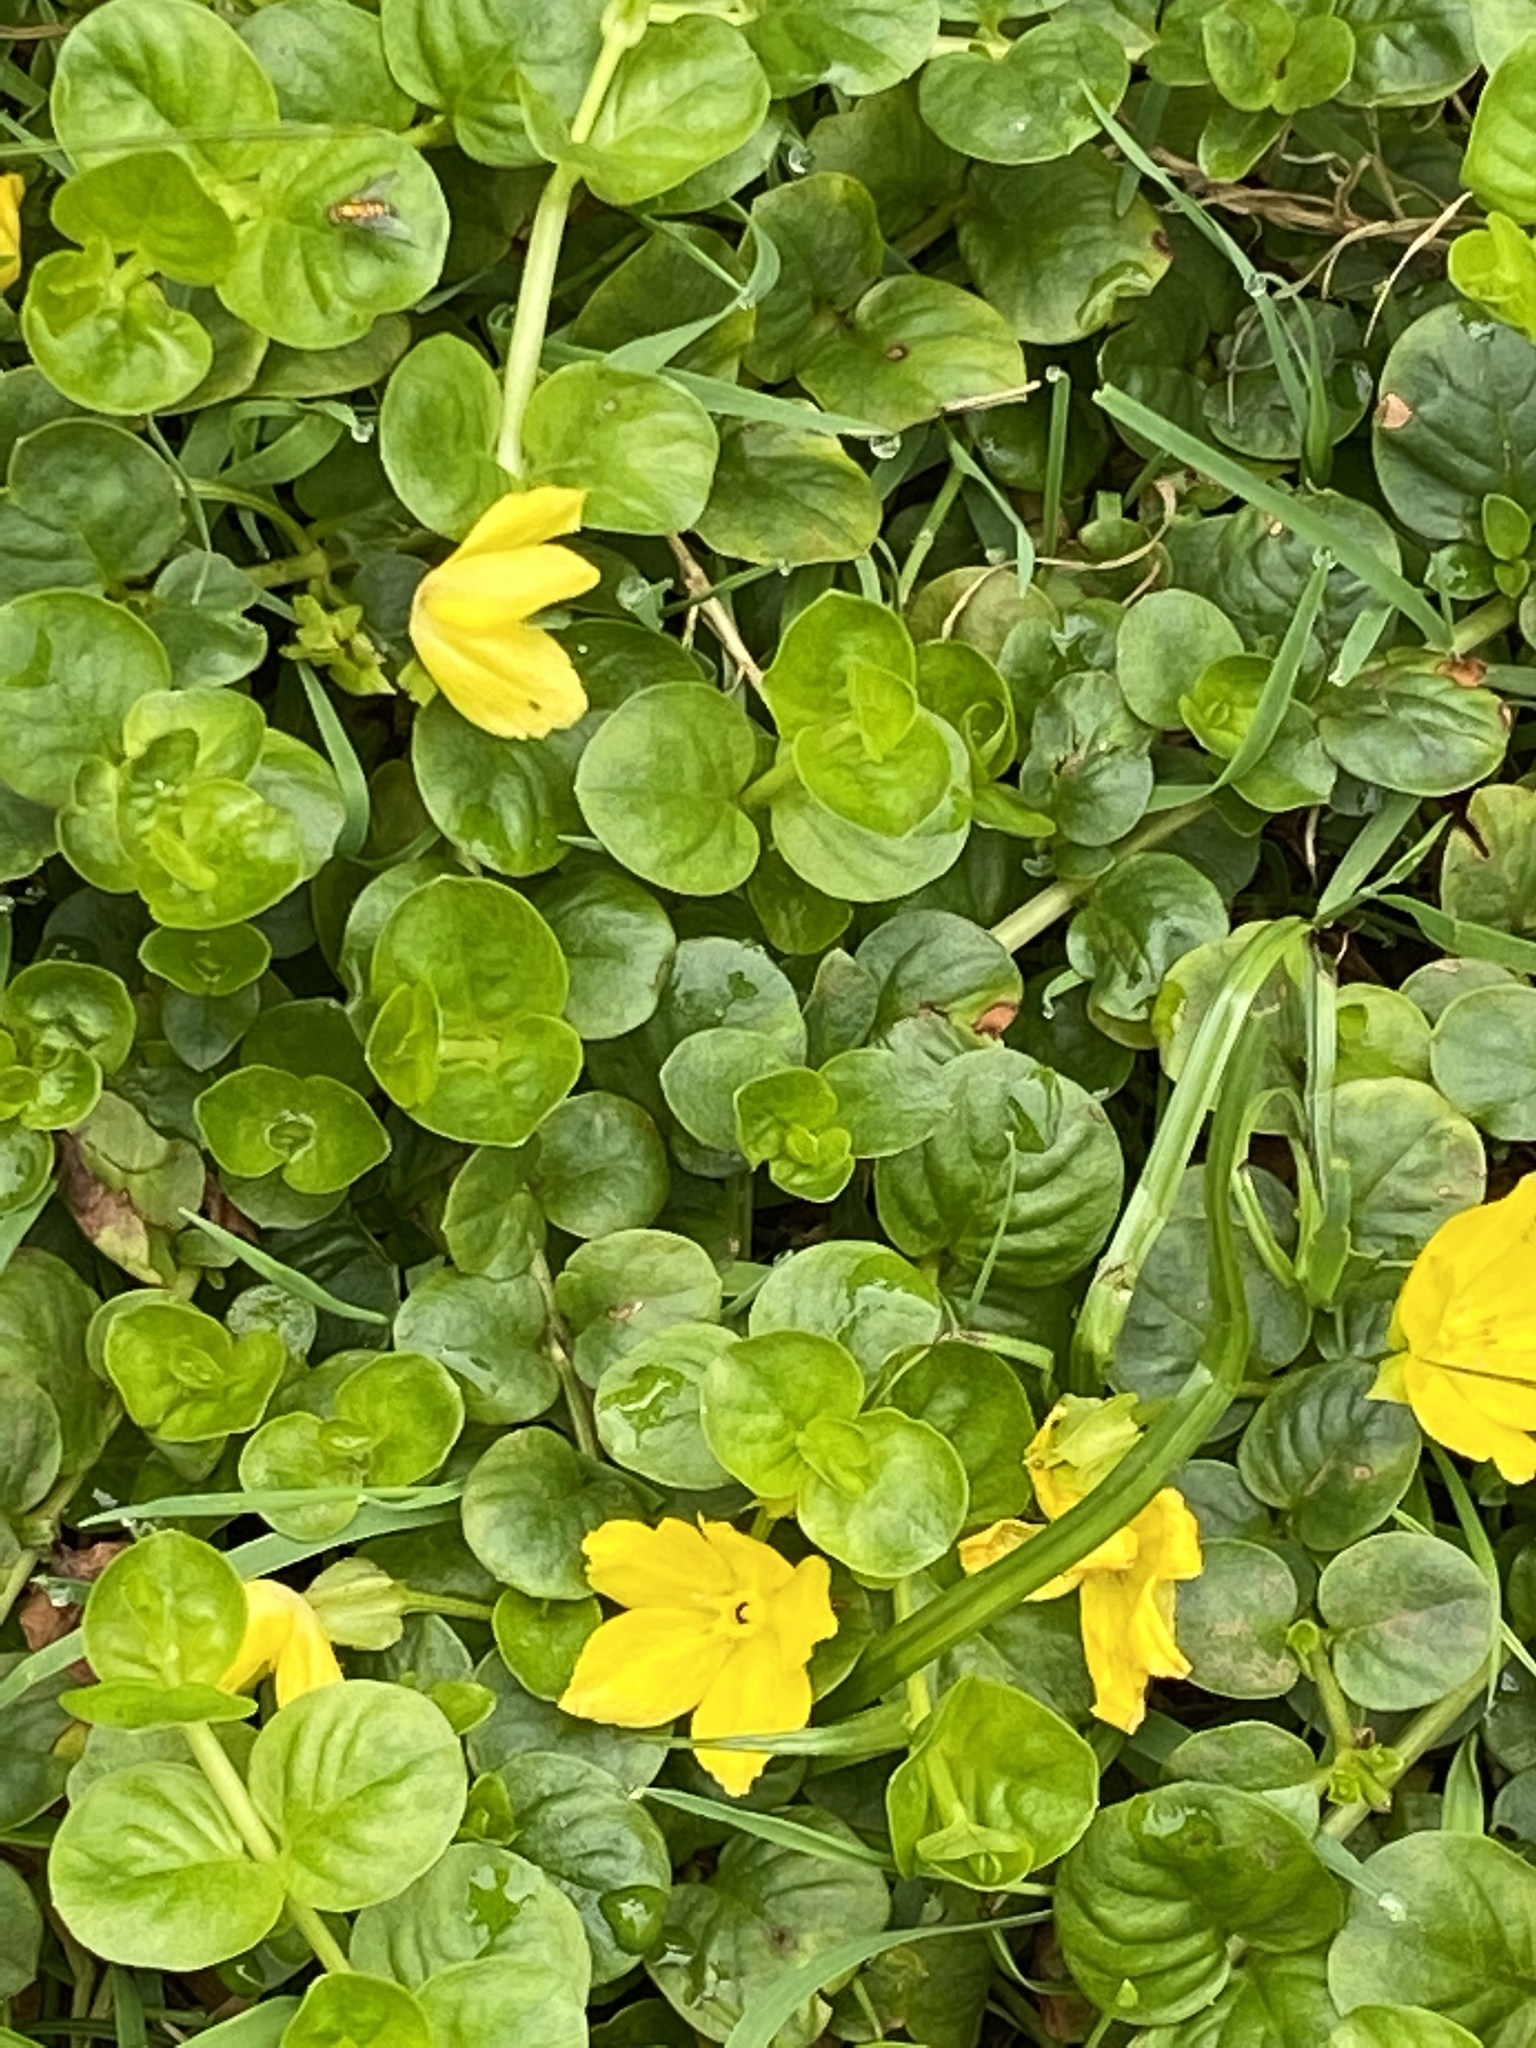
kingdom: Plantae
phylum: Tracheophyta
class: Magnoliopsida
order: Ericales
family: Primulaceae
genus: Lysimachia
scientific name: Lysimachia nummularia
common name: Moneywort
